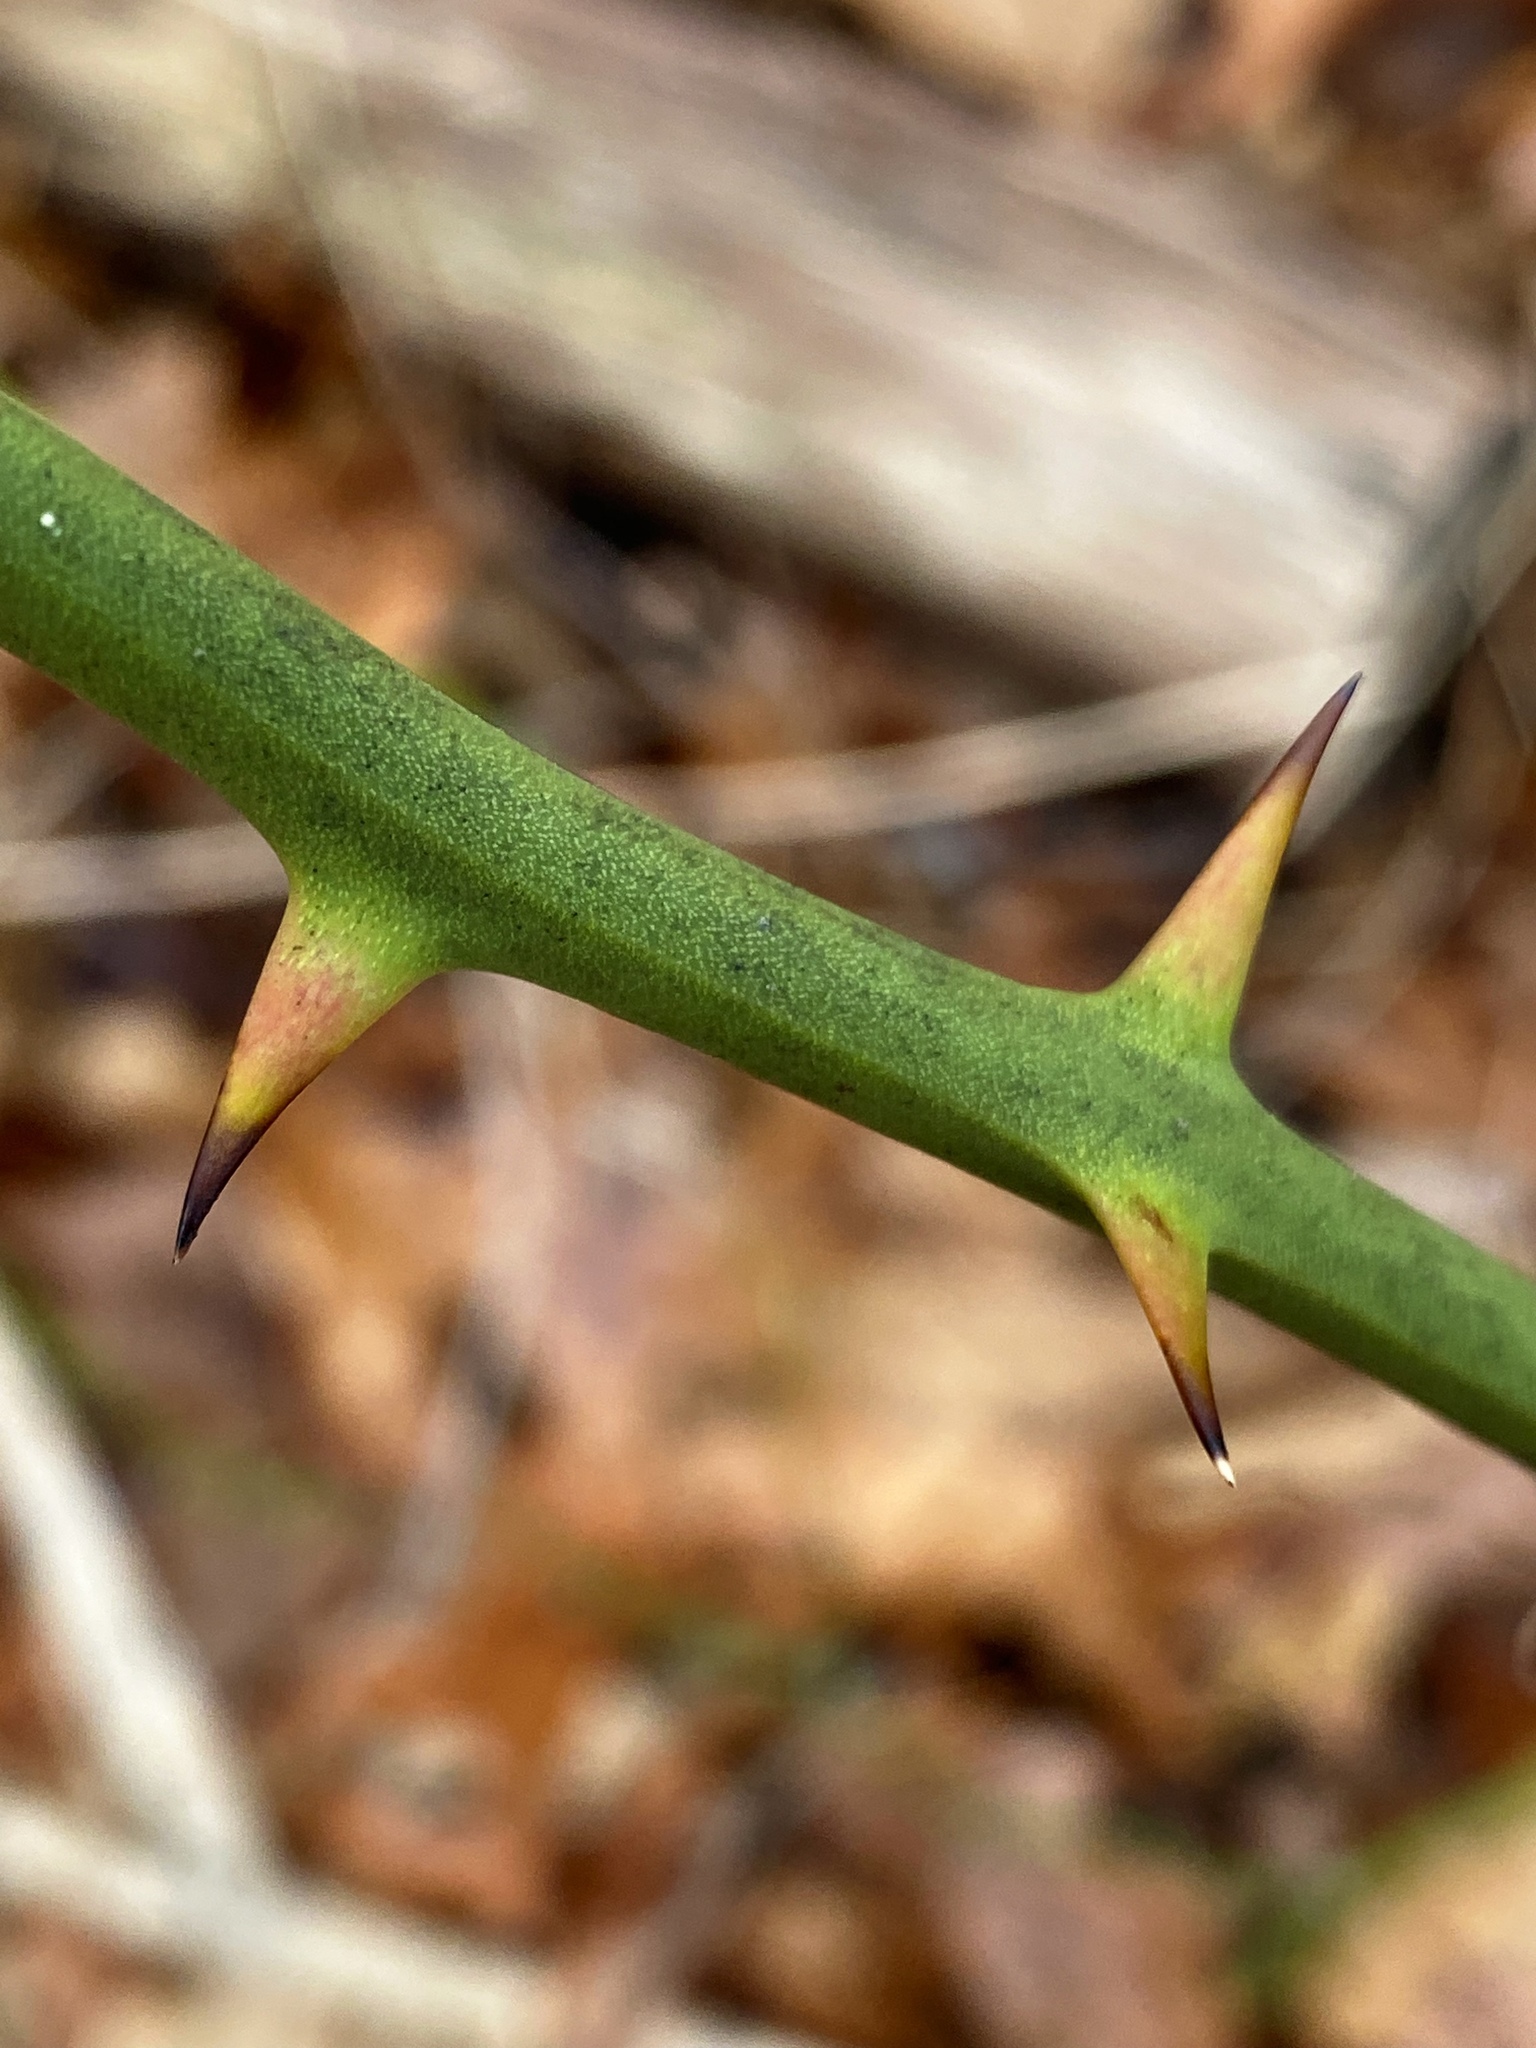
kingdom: Plantae
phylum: Tracheophyta
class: Liliopsida
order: Liliales
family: Smilacaceae
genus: Smilax
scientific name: Smilax rotundifolia
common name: Bullbriar
